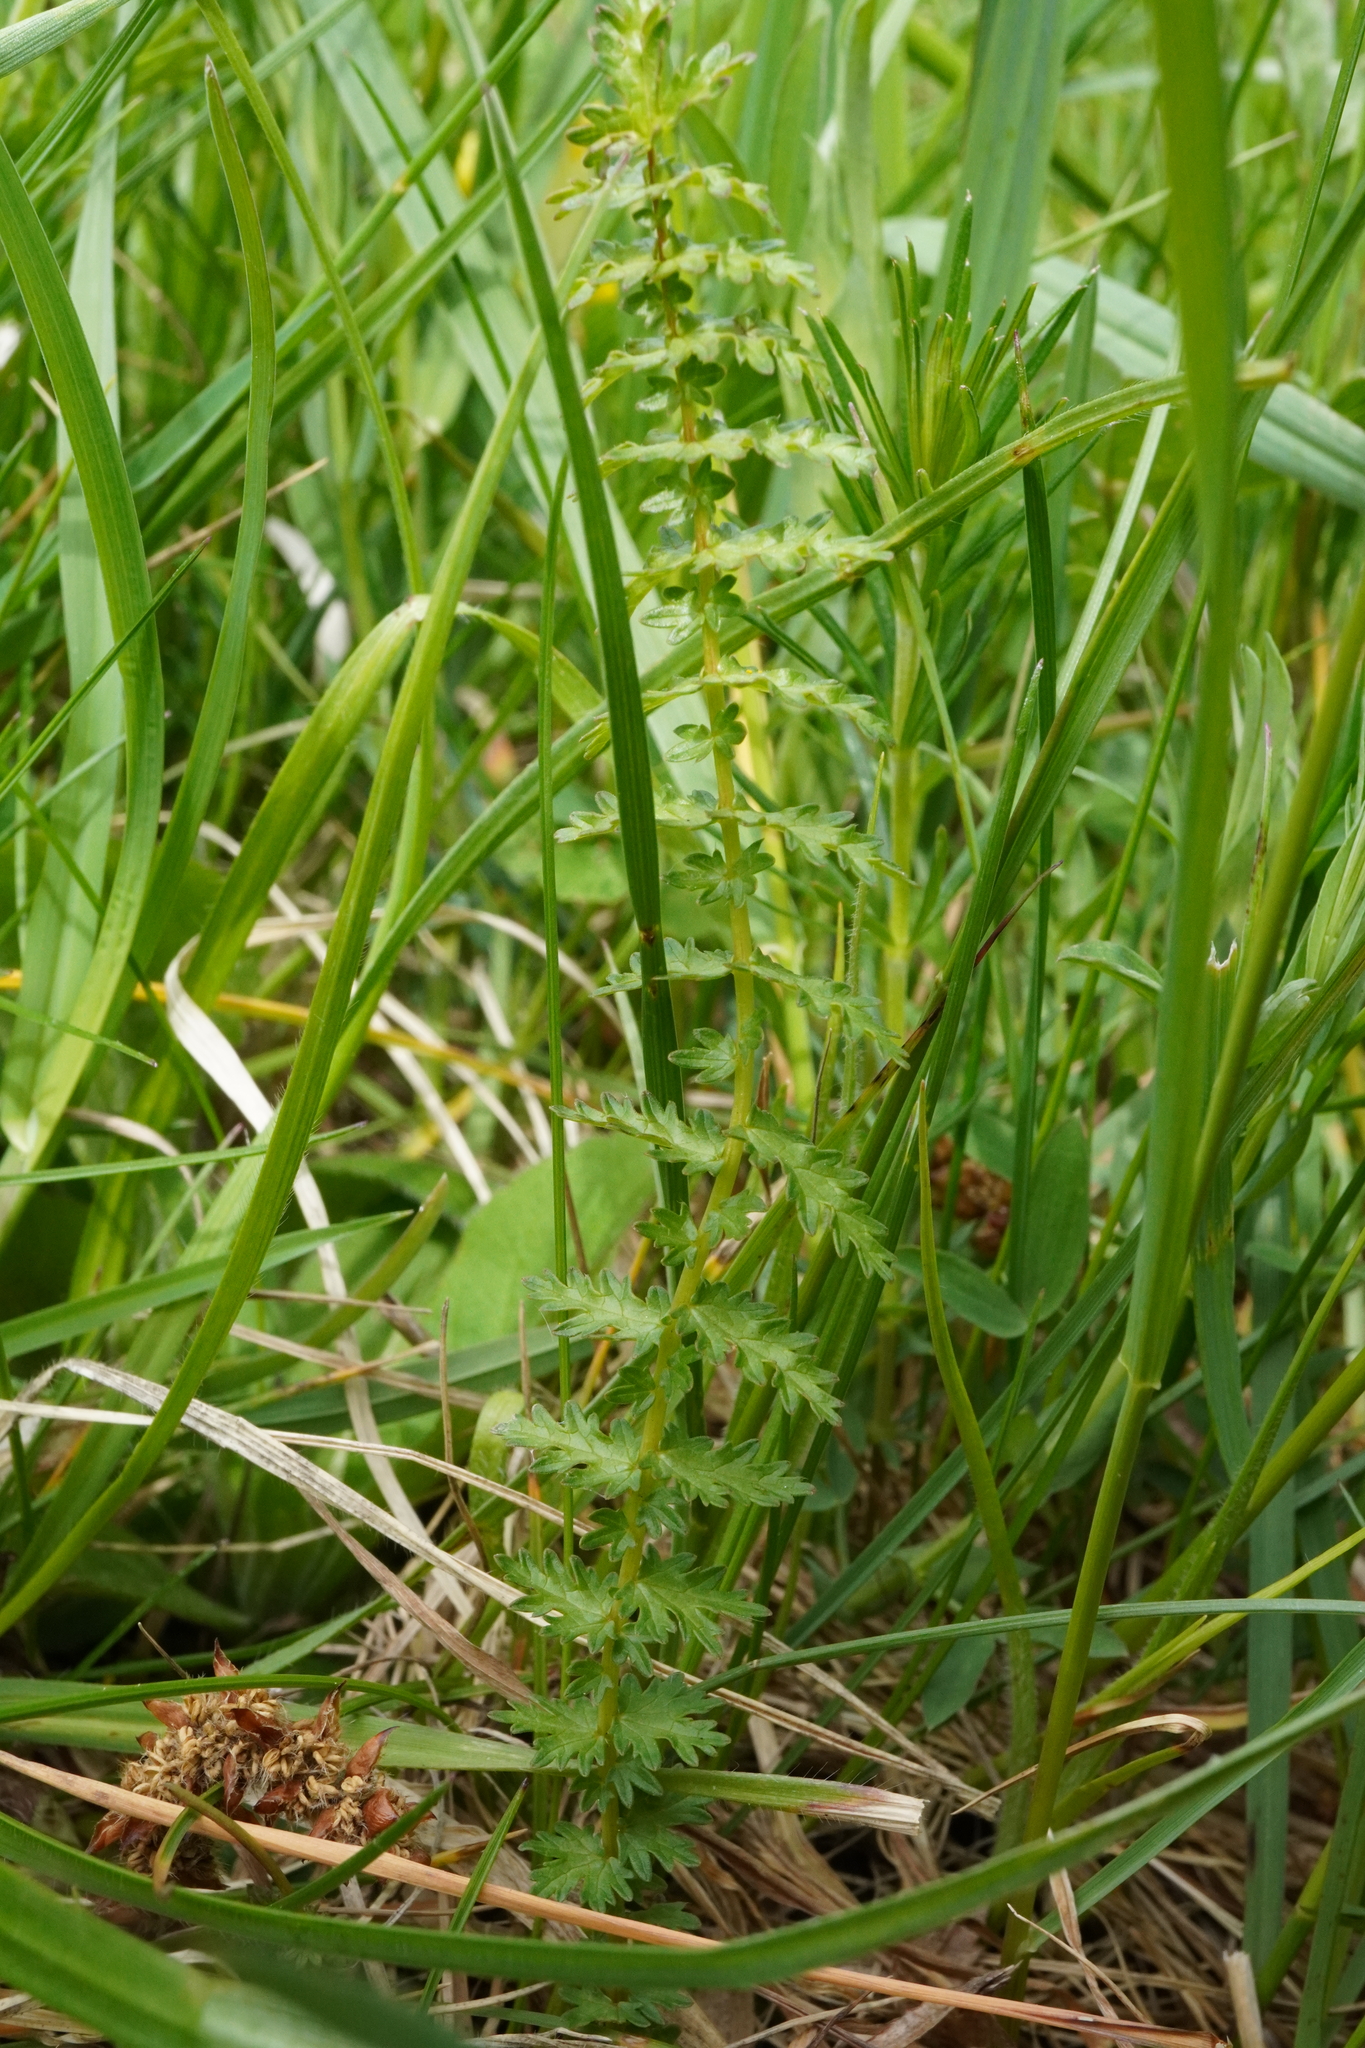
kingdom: Plantae
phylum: Tracheophyta
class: Magnoliopsida
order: Rosales
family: Rosaceae
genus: Filipendula
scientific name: Filipendula vulgaris
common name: Dropwort
